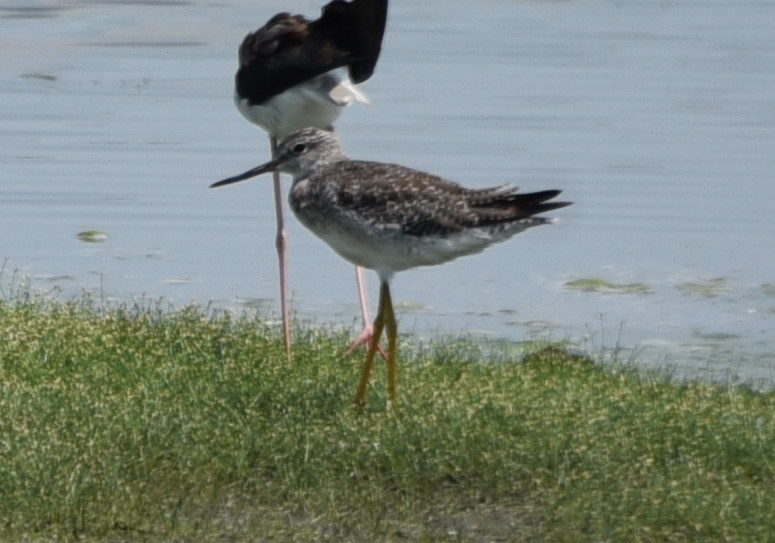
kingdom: Animalia
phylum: Chordata
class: Aves
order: Charadriiformes
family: Scolopacidae
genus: Tringa
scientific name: Tringa melanoleuca
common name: Greater yellowlegs
